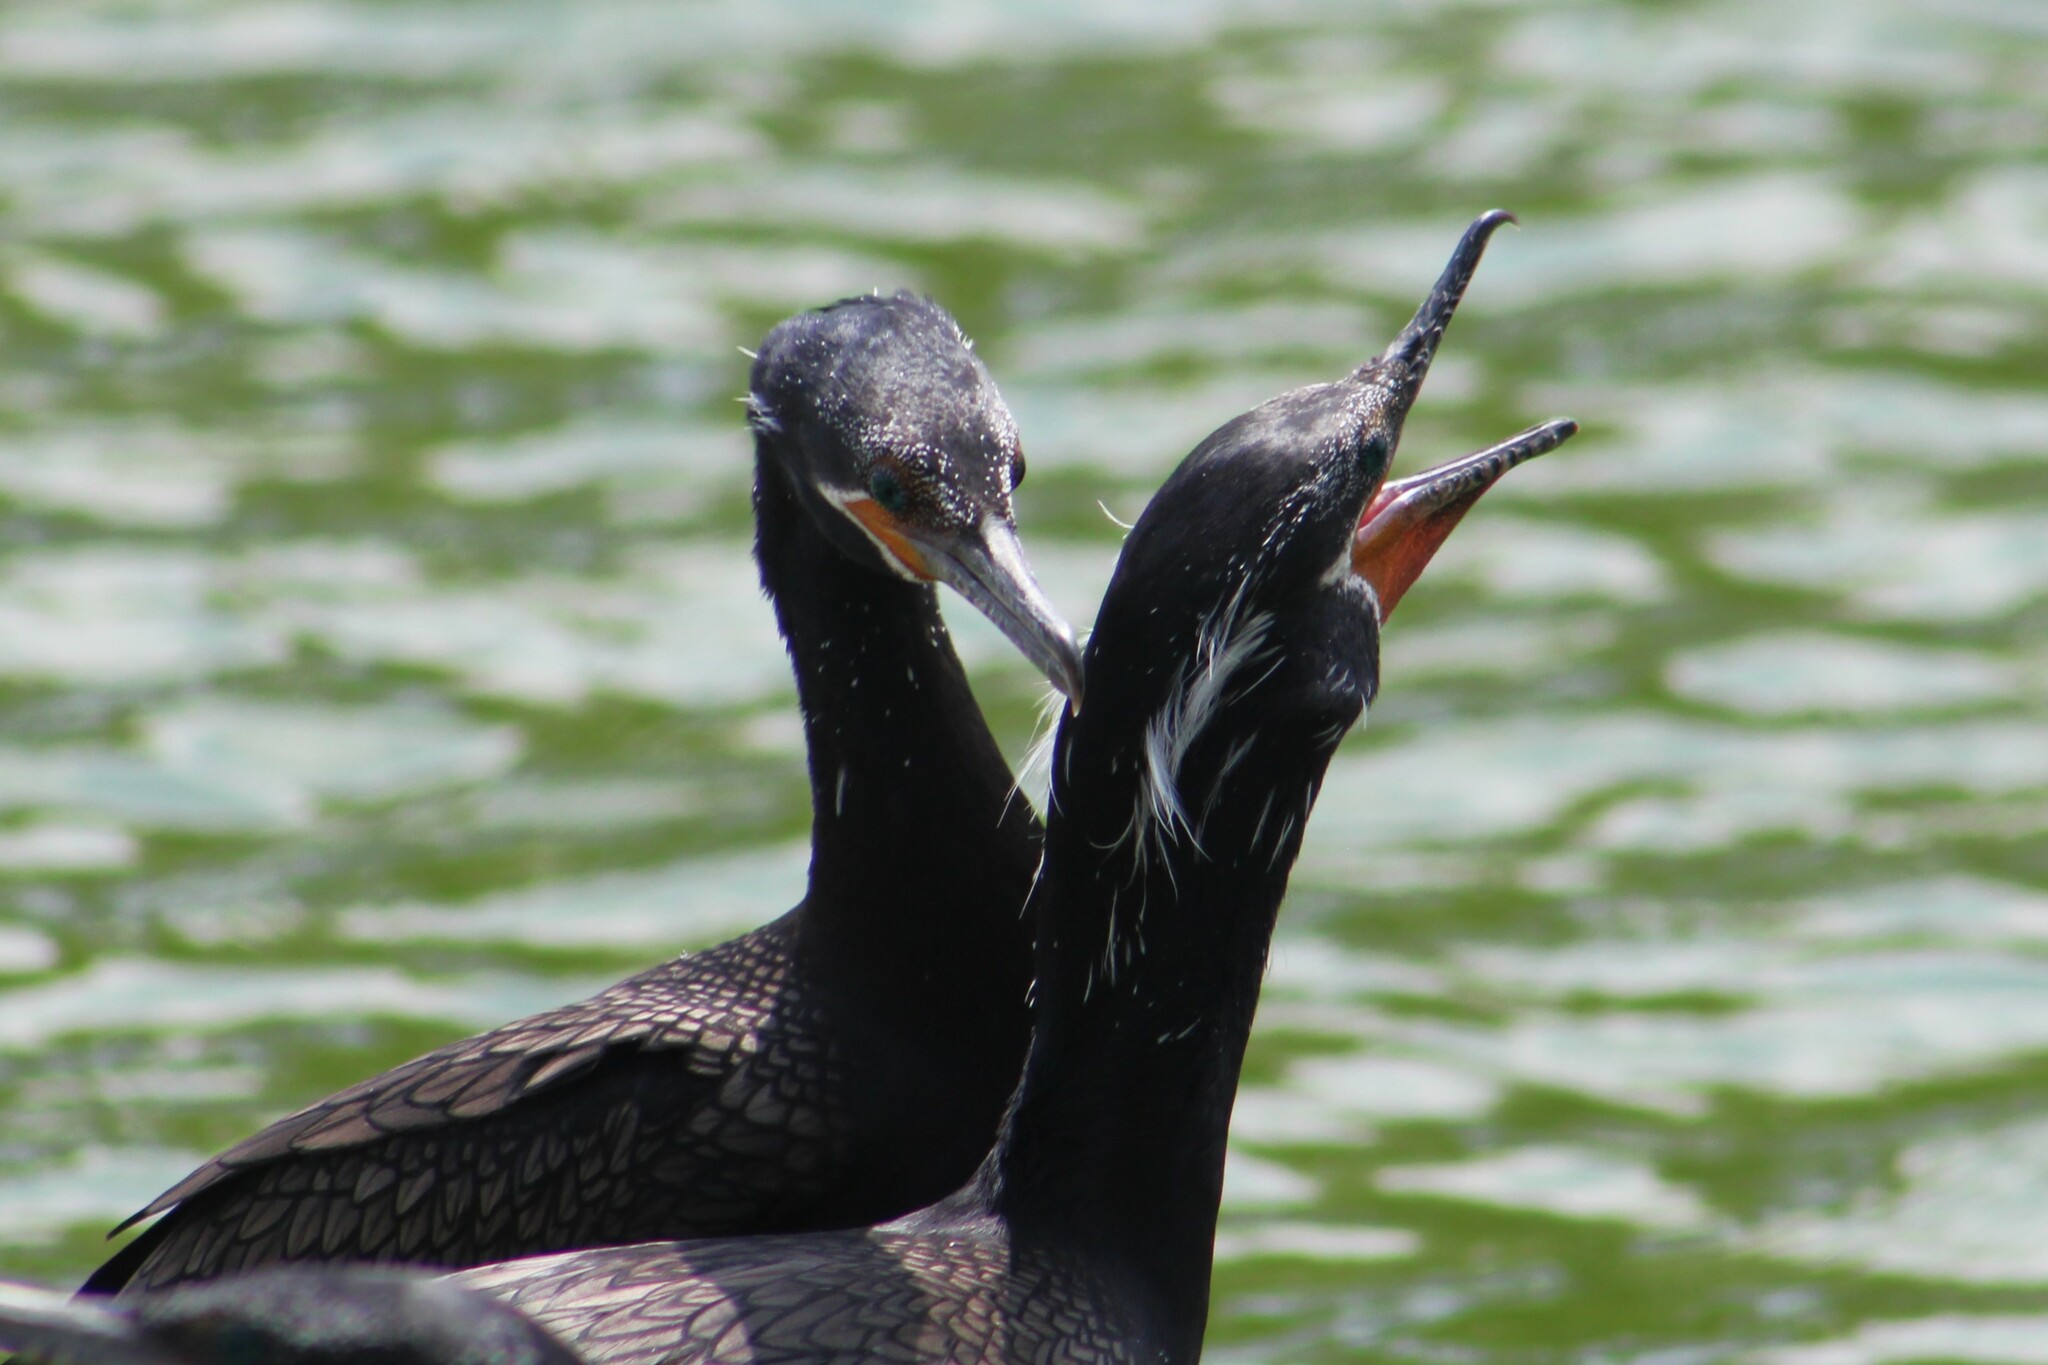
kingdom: Animalia
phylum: Chordata
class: Aves
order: Suliformes
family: Phalacrocoracidae
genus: Phalacrocorax
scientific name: Phalacrocorax brasilianus
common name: Neotropic cormorant
